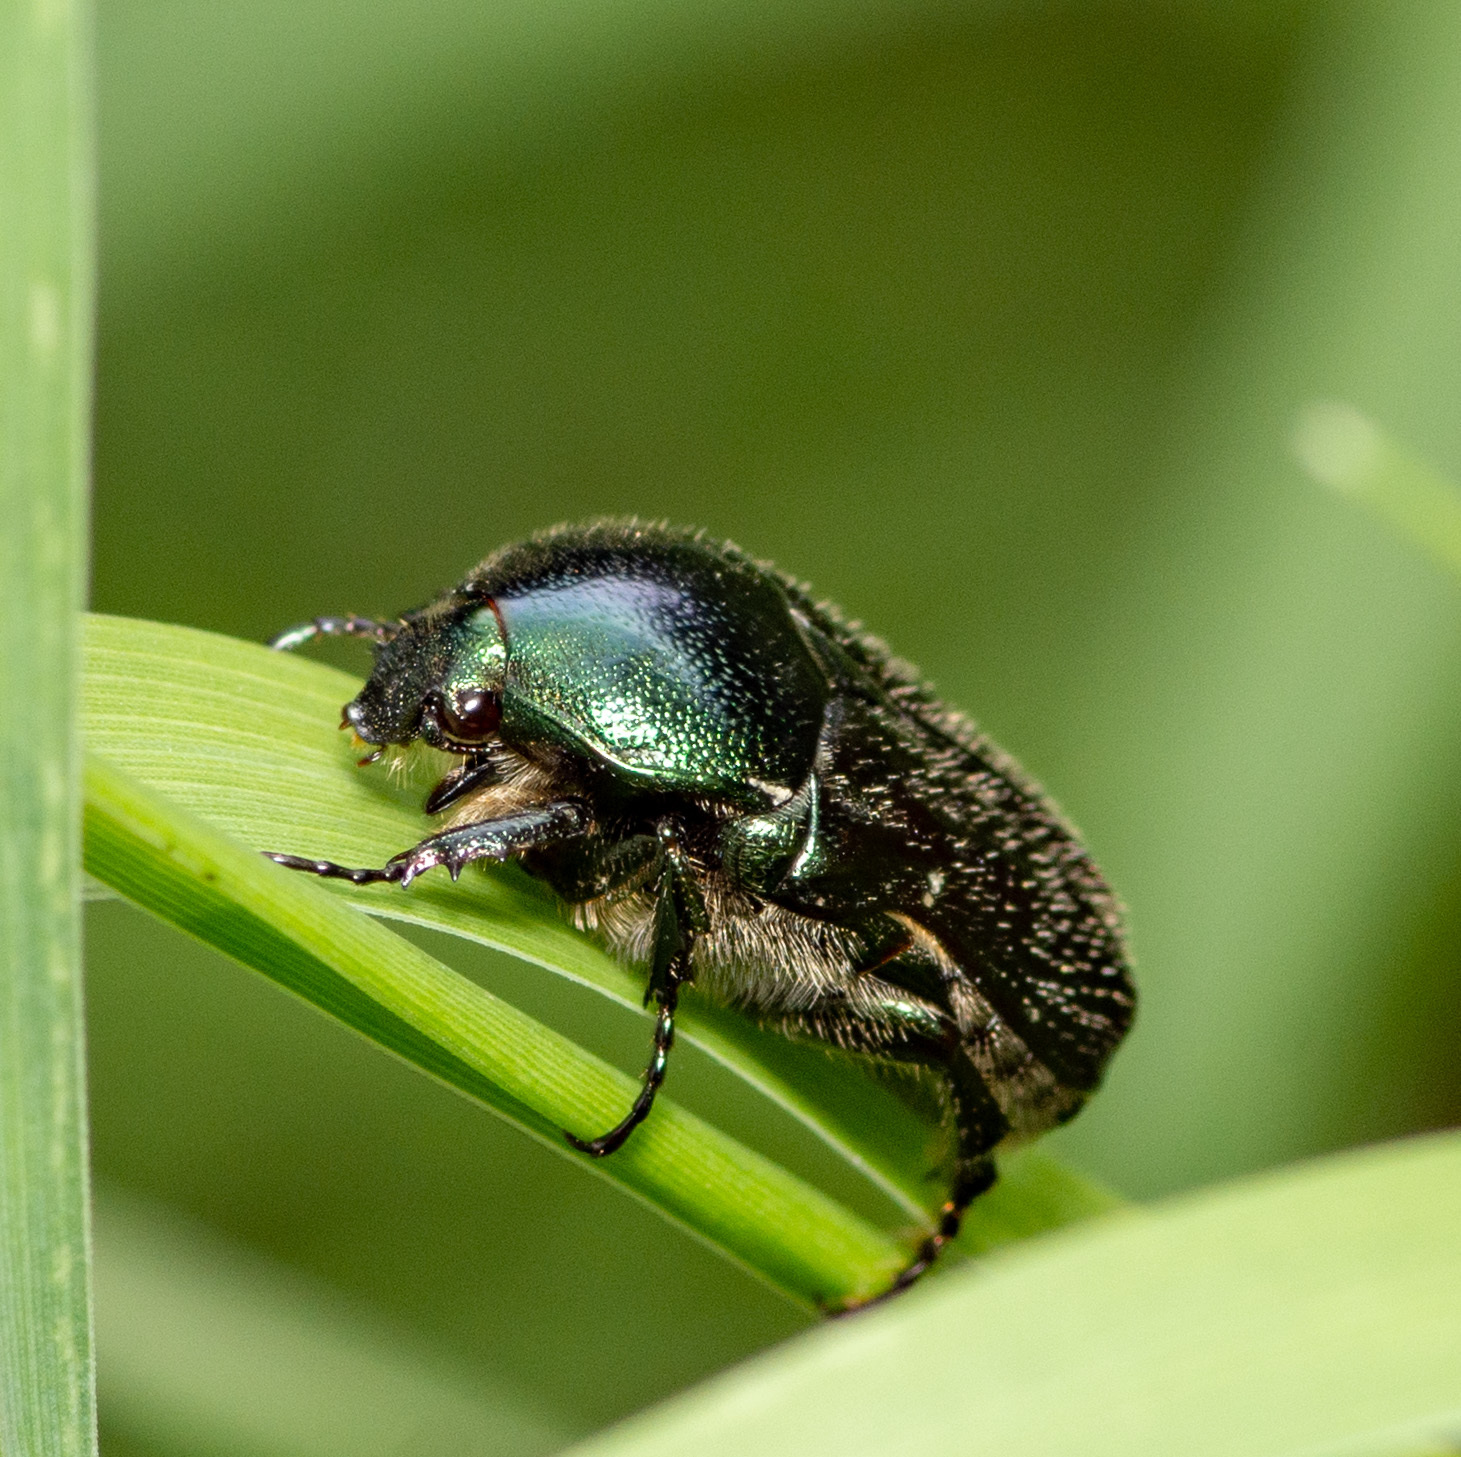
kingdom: Animalia
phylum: Arthropoda
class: Insecta
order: Coleoptera
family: Scarabaeidae
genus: Euphoria
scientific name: Euphoria sepulcralis
